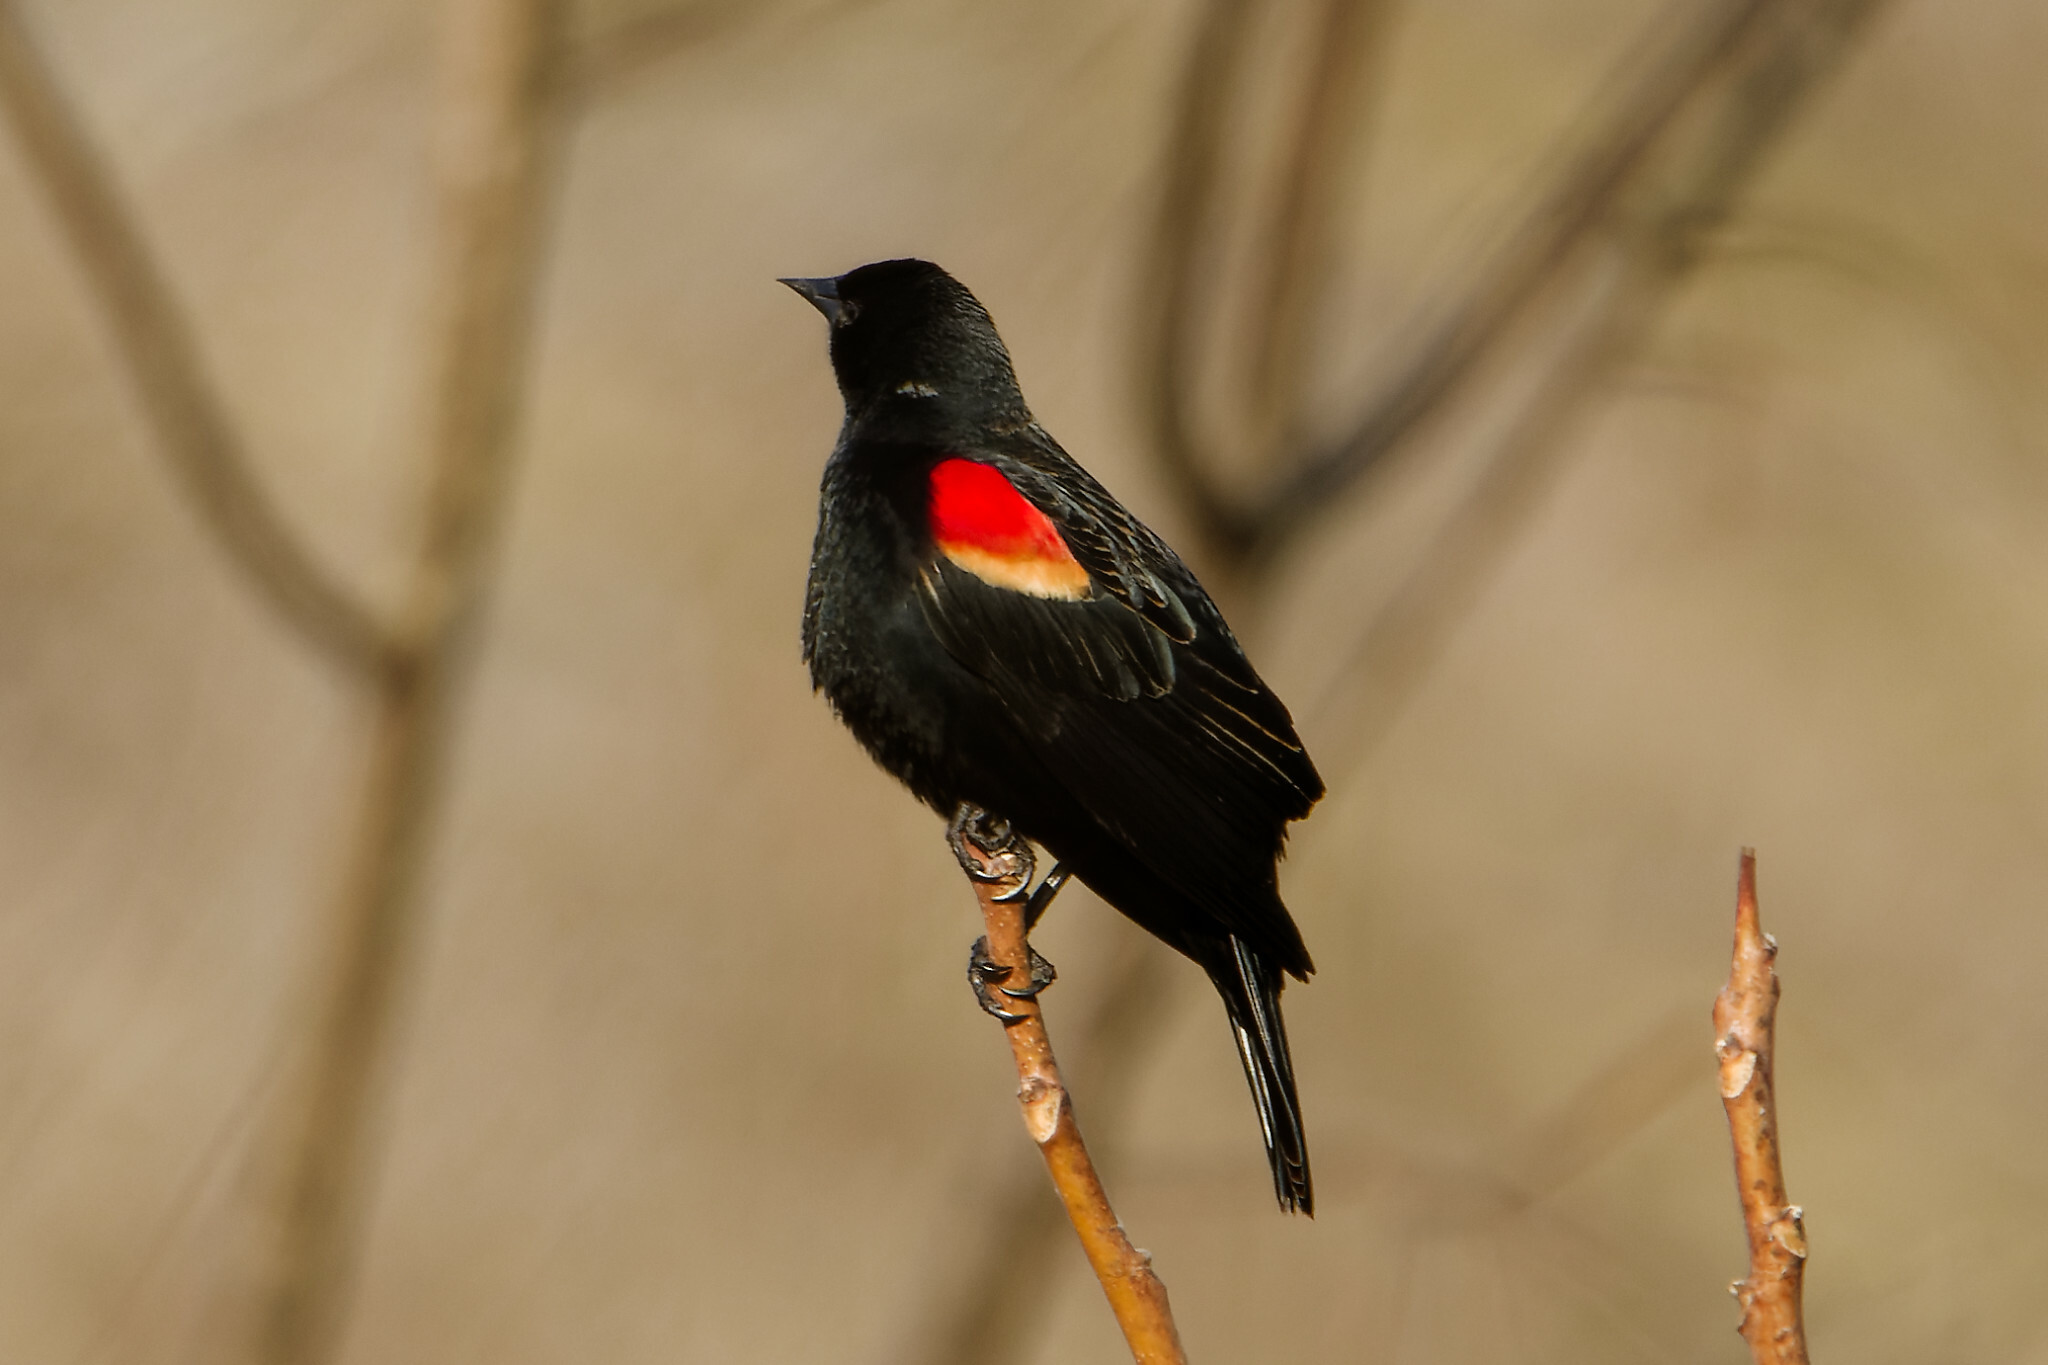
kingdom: Animalia
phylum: Chordata
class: Aves
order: Passeriformes
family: Icteridae
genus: Agelaius
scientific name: Agelaius phoeniceus
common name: Red-winged blackbird
